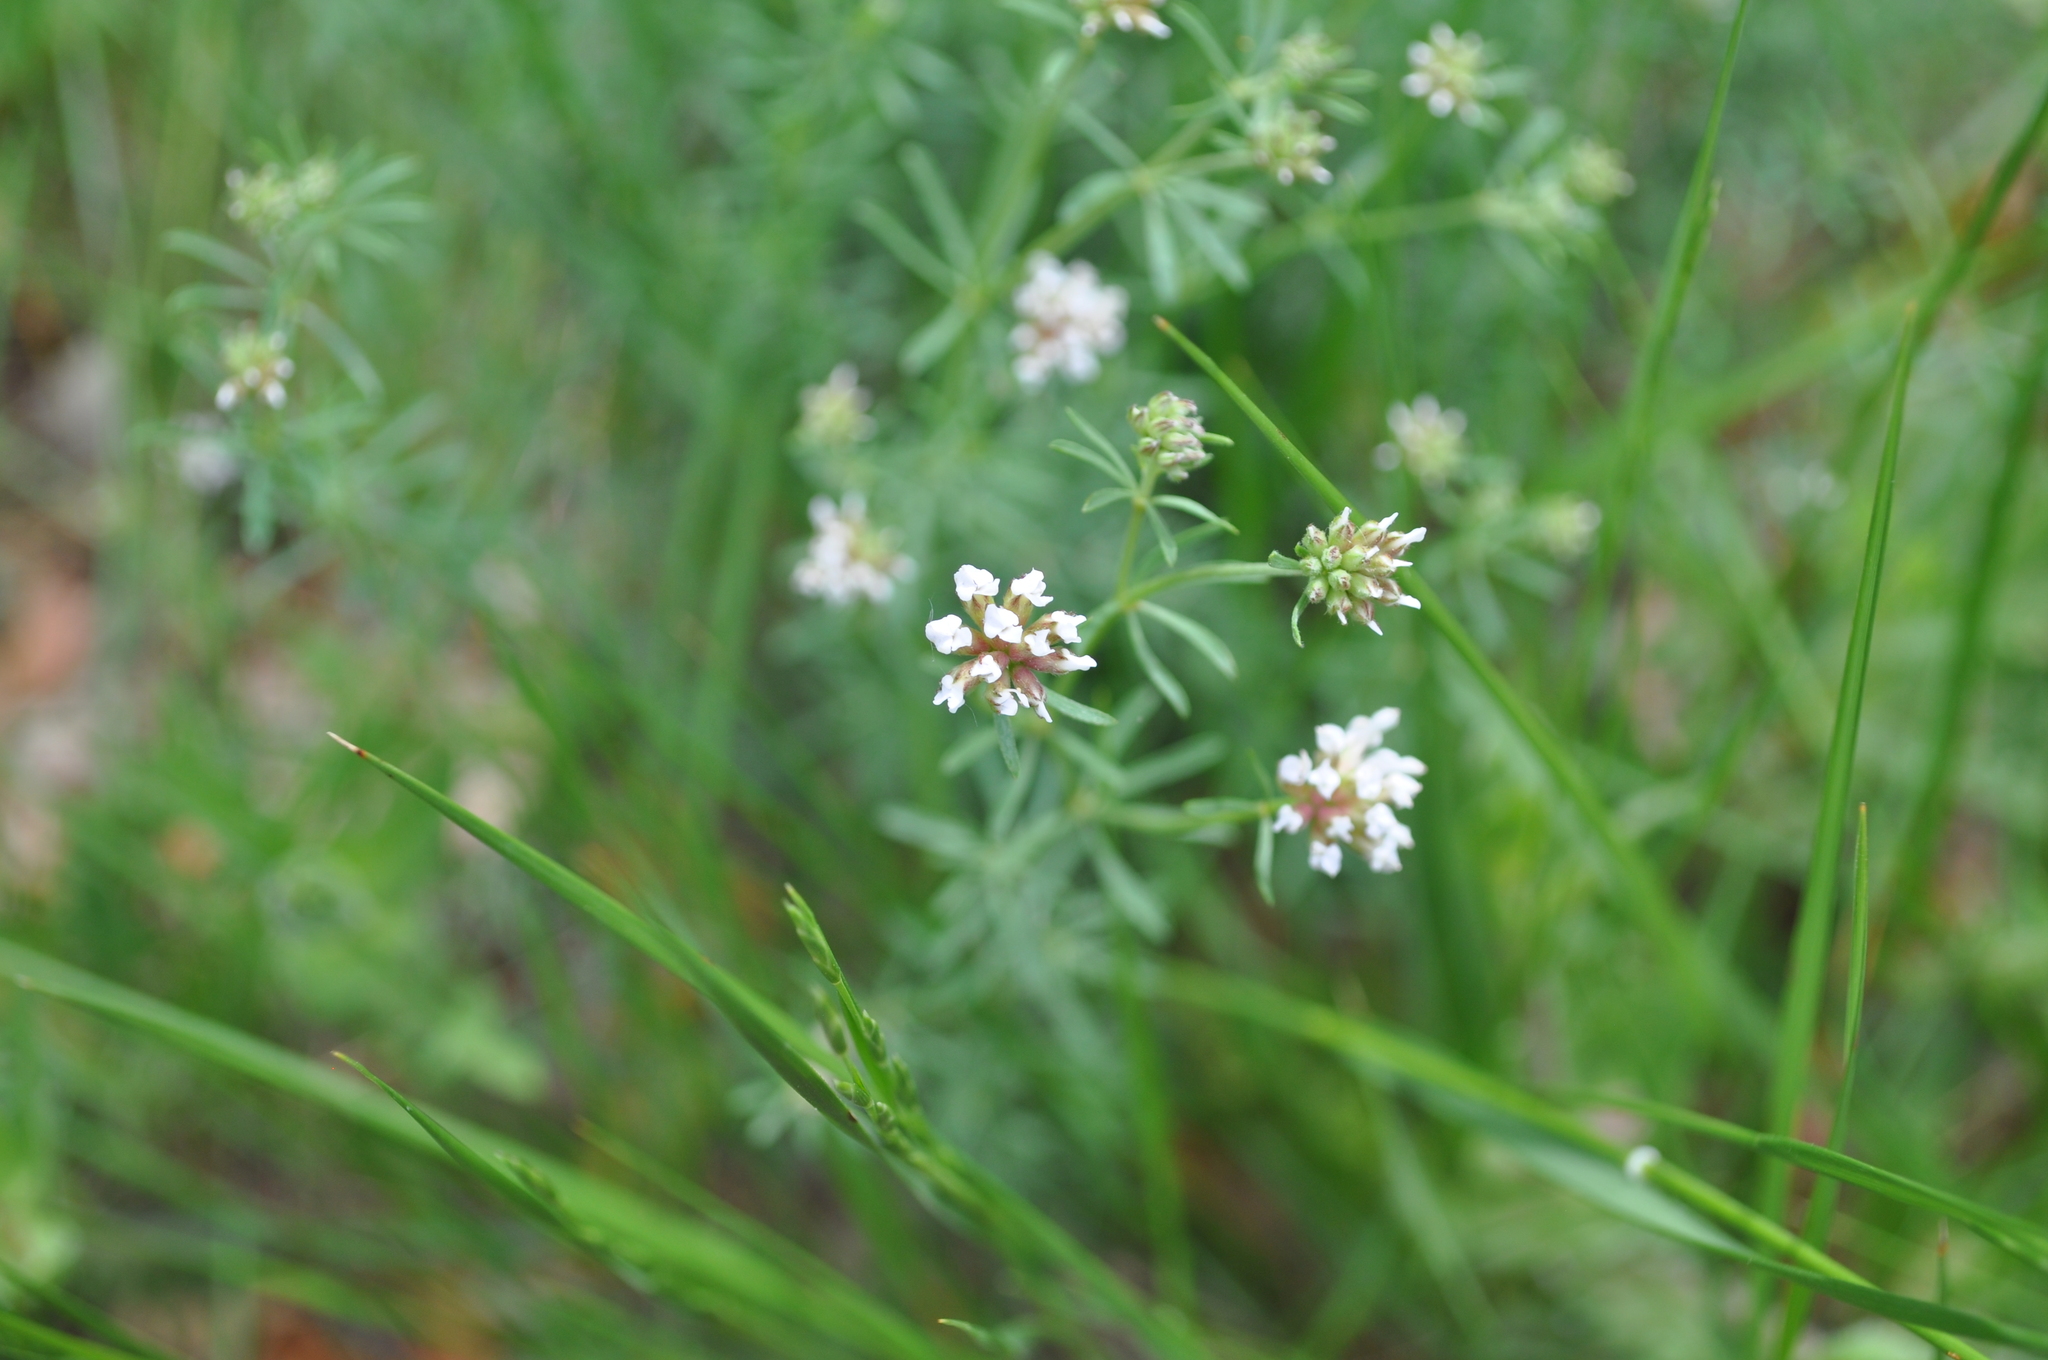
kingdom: Plantae
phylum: Tracheophyta
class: Magnoliopsida
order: Fabales
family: Fabaceae
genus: Lotus
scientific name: Lotus dorycnium
